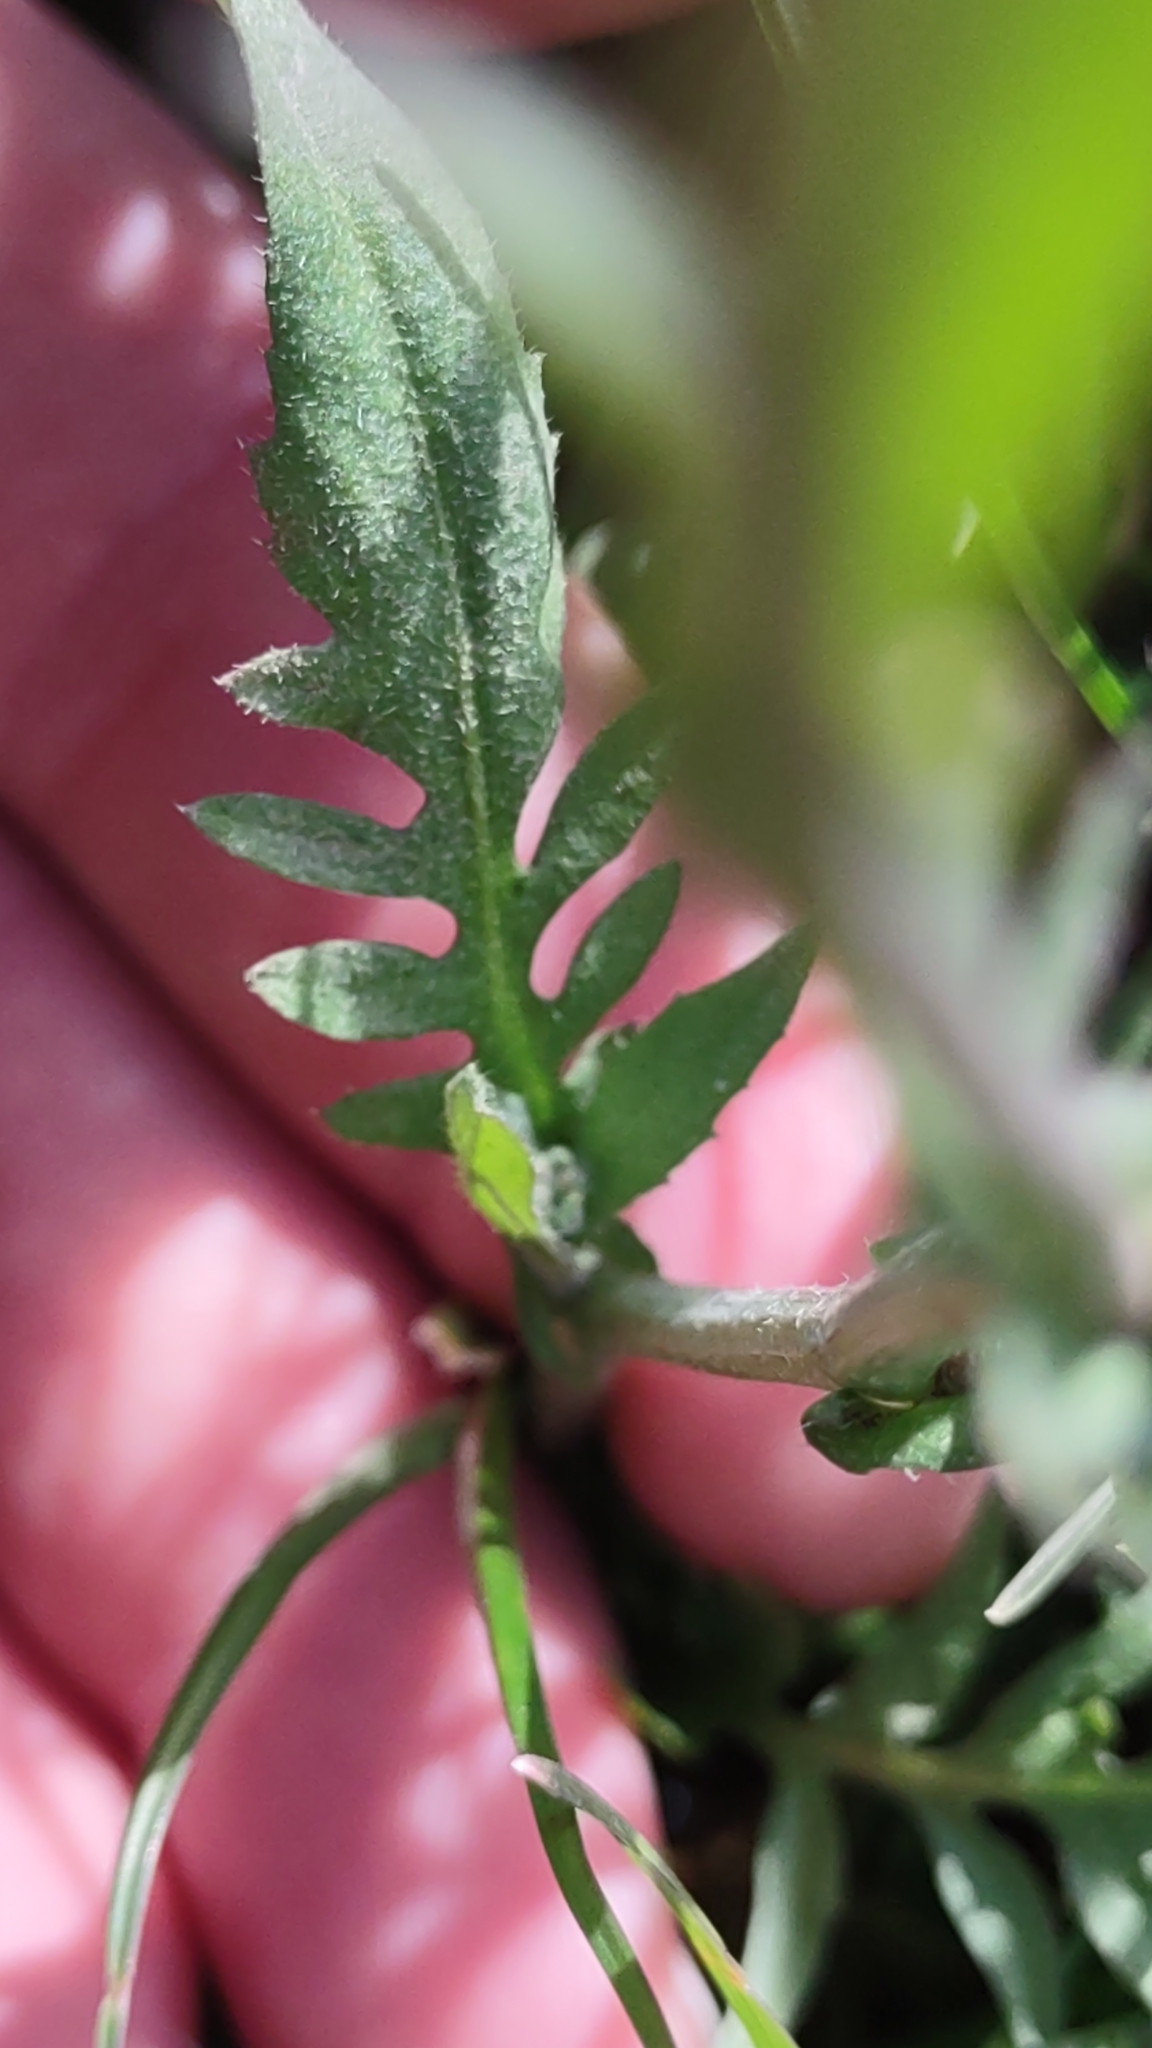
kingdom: Plantae
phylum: Tracheophyta
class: Magnoliopsida
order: Brassicales
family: Brassicaceae
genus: Capsella
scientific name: Capsella bursa-pastoris
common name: Shepherd's purse
